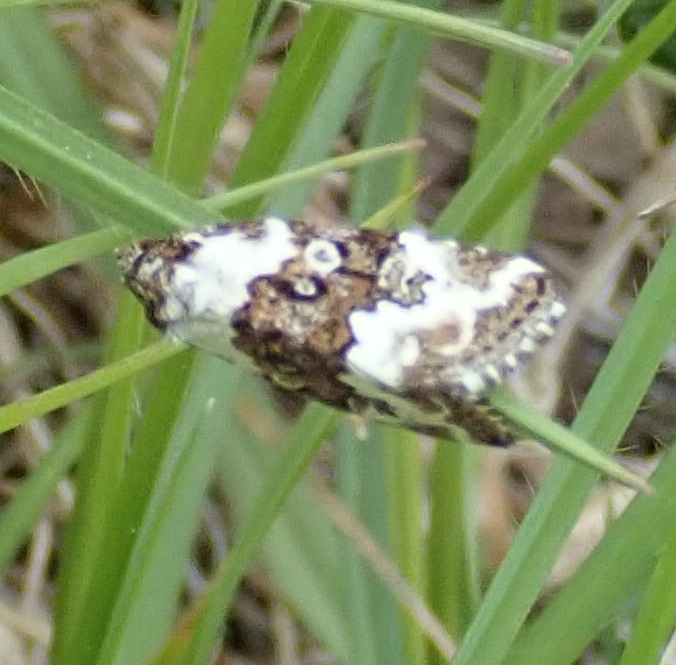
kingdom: Animalia
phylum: Arthropoda
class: Insecta
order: Lepidoptera
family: Noctuidae
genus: Deltote
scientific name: Deltote deceptoria
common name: Pretty marbled
